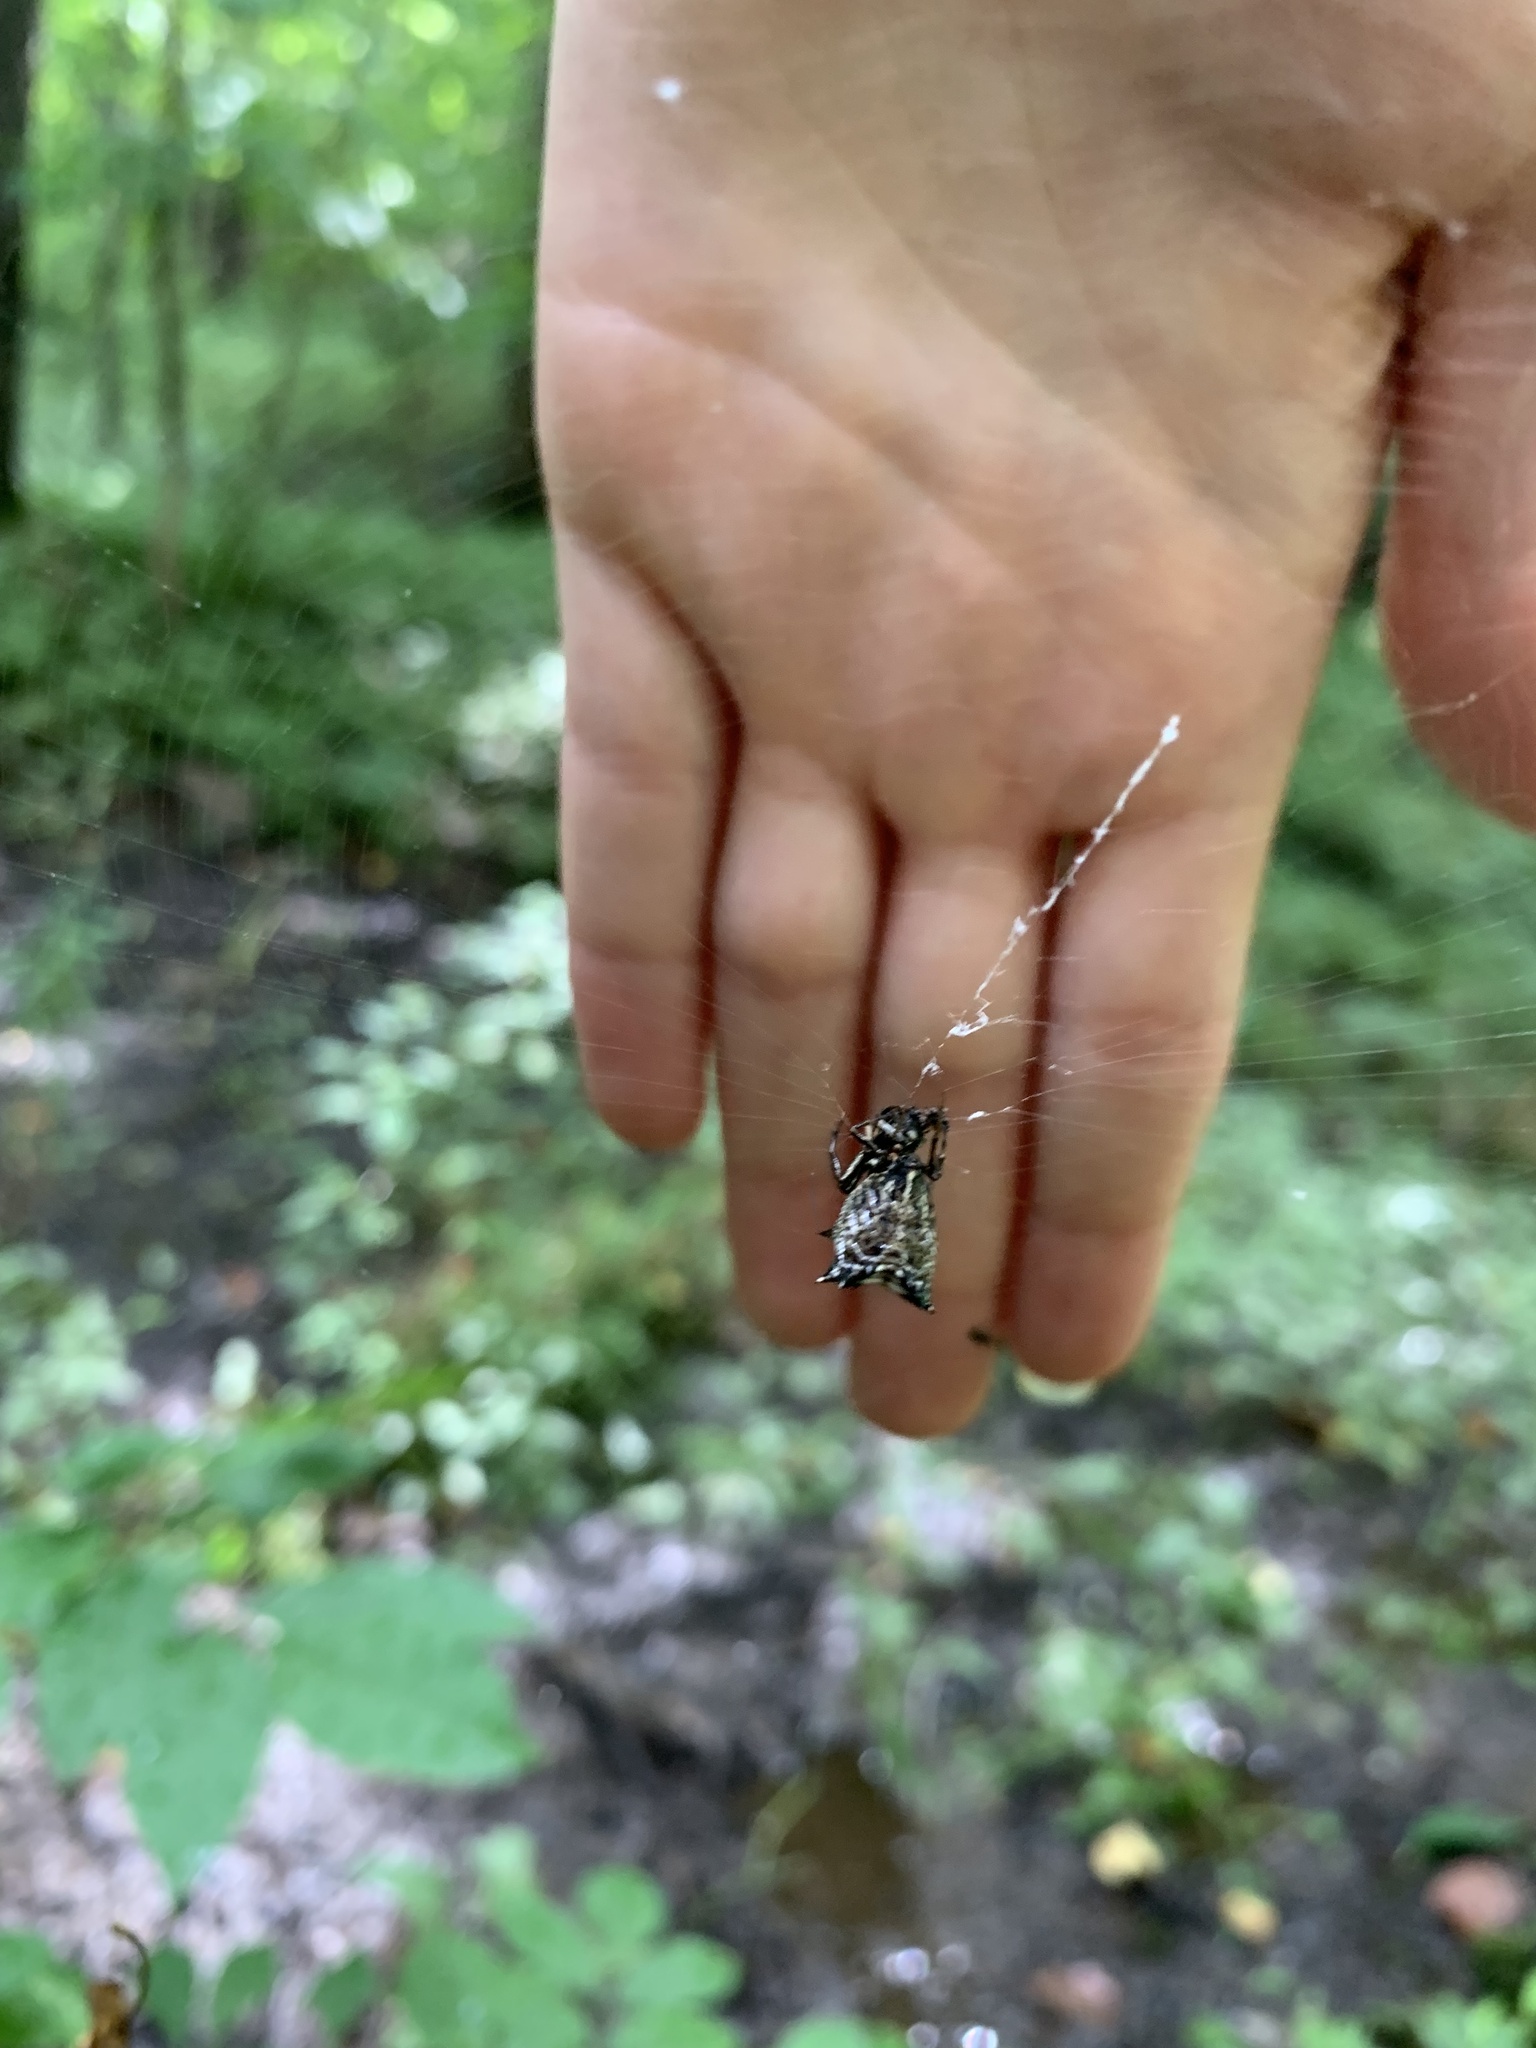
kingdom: Animalia
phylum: Arthropoda
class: Arachnida
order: Araneae
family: Araneidae
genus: Micrathena
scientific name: Micrathena gracilis
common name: Orb weavers
